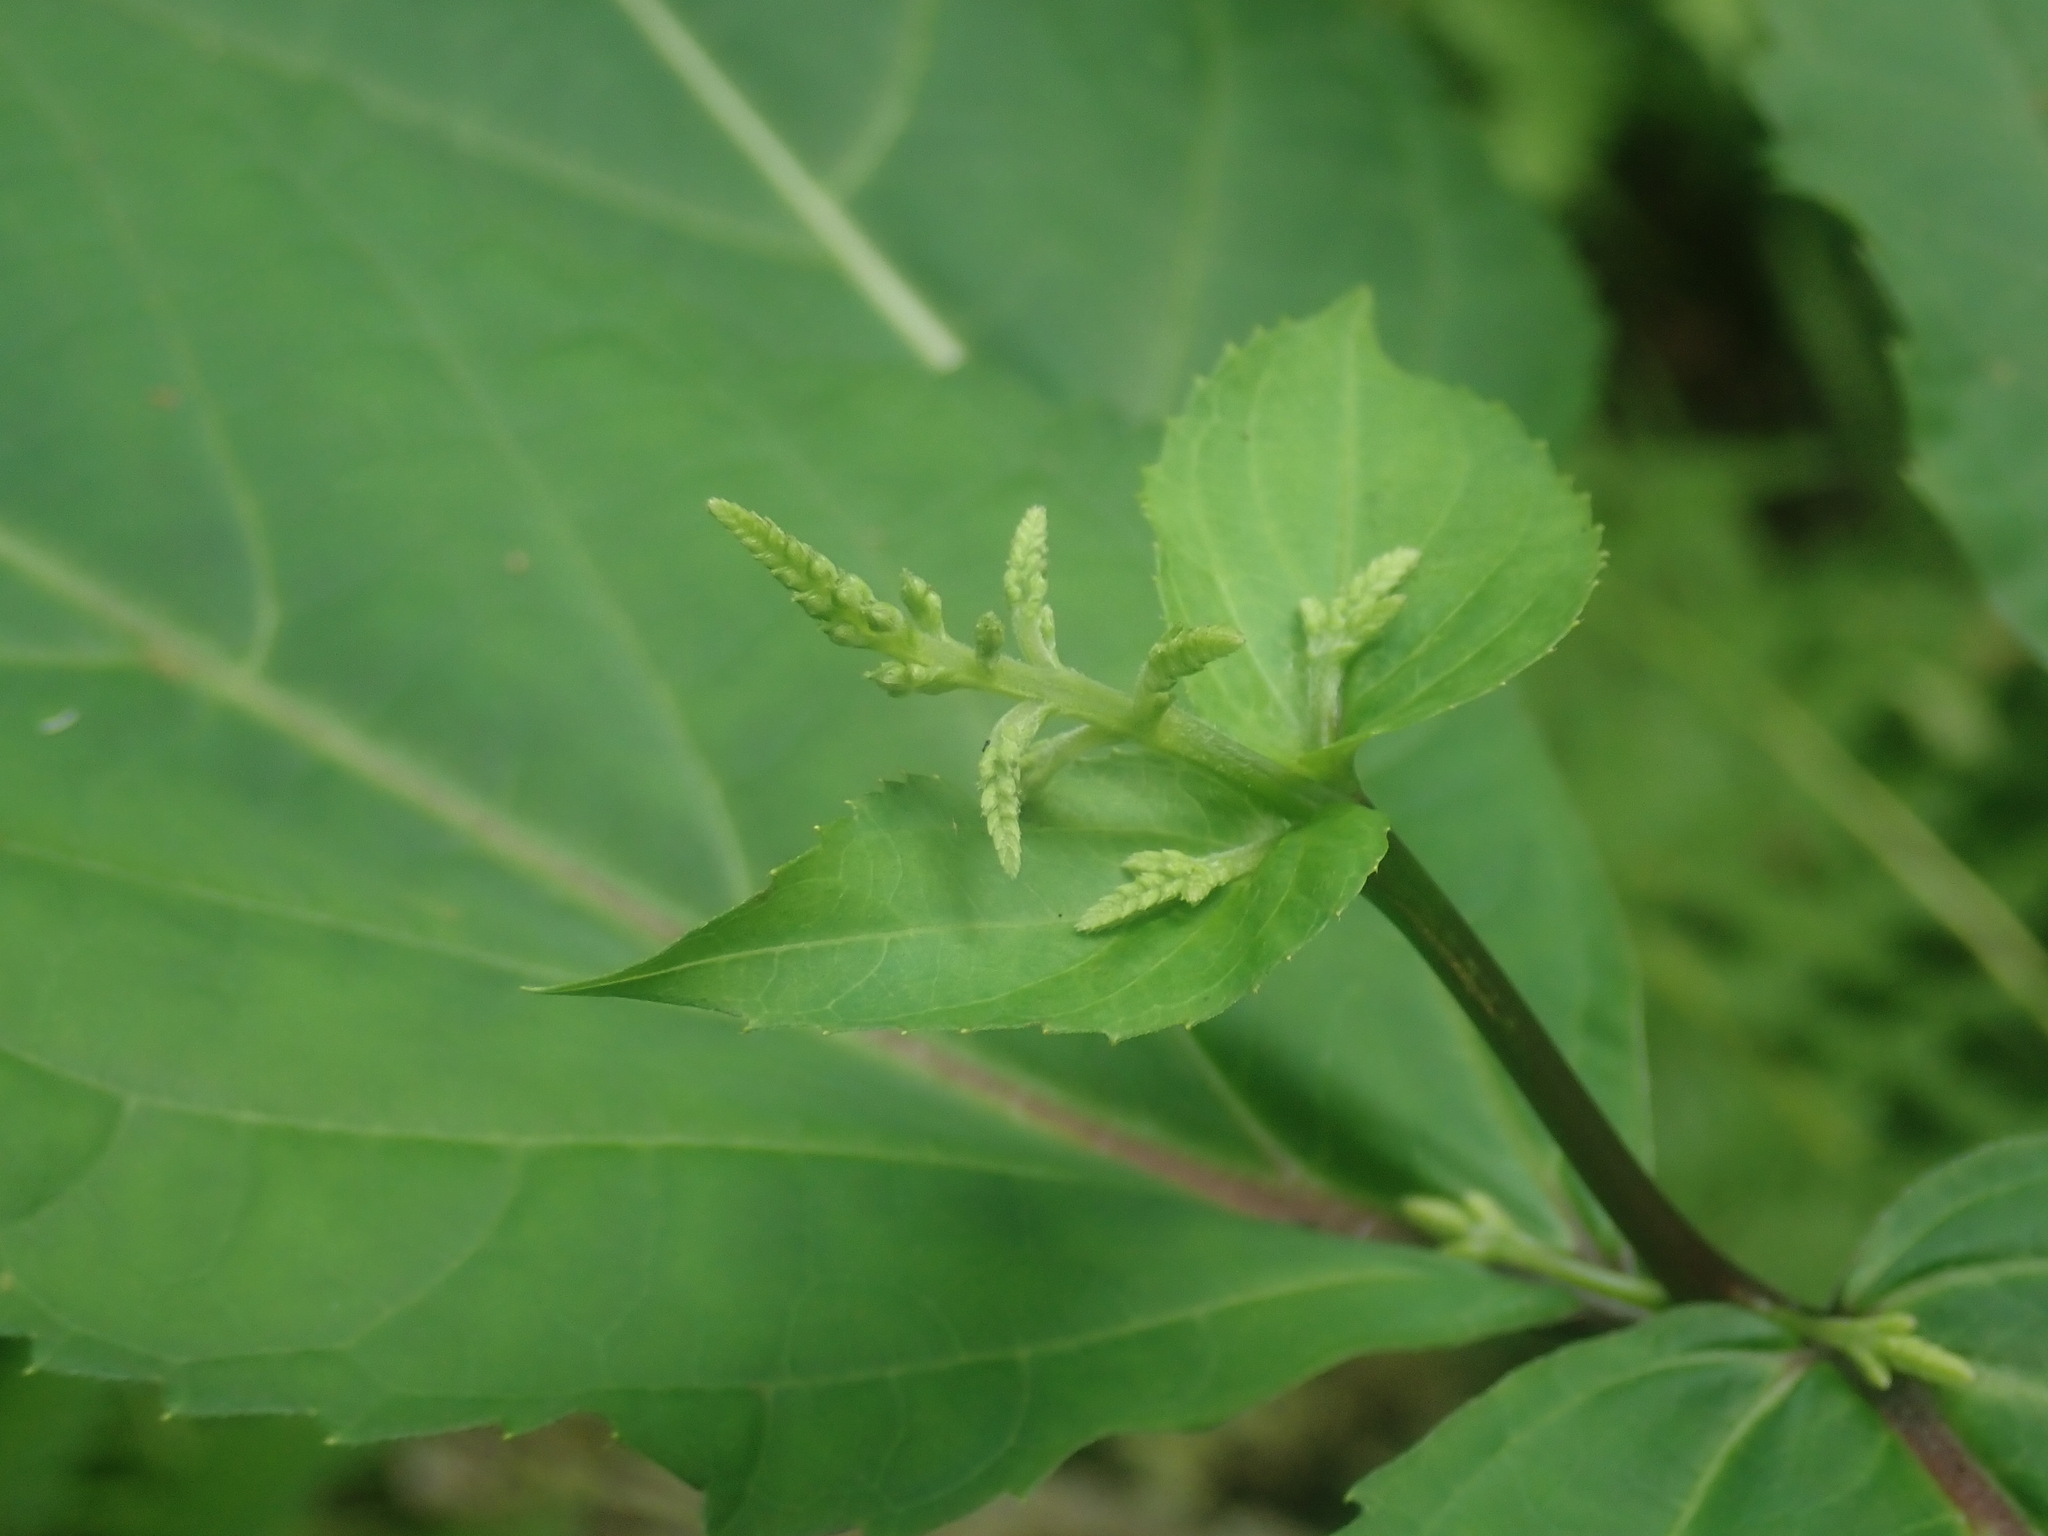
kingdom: Plantae
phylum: Tracheophyta
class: Magnoliopsida
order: Lamiales
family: Lamiaceae
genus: Collinsonia
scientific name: Collinsonia canadensis
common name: Northern horsebalm
